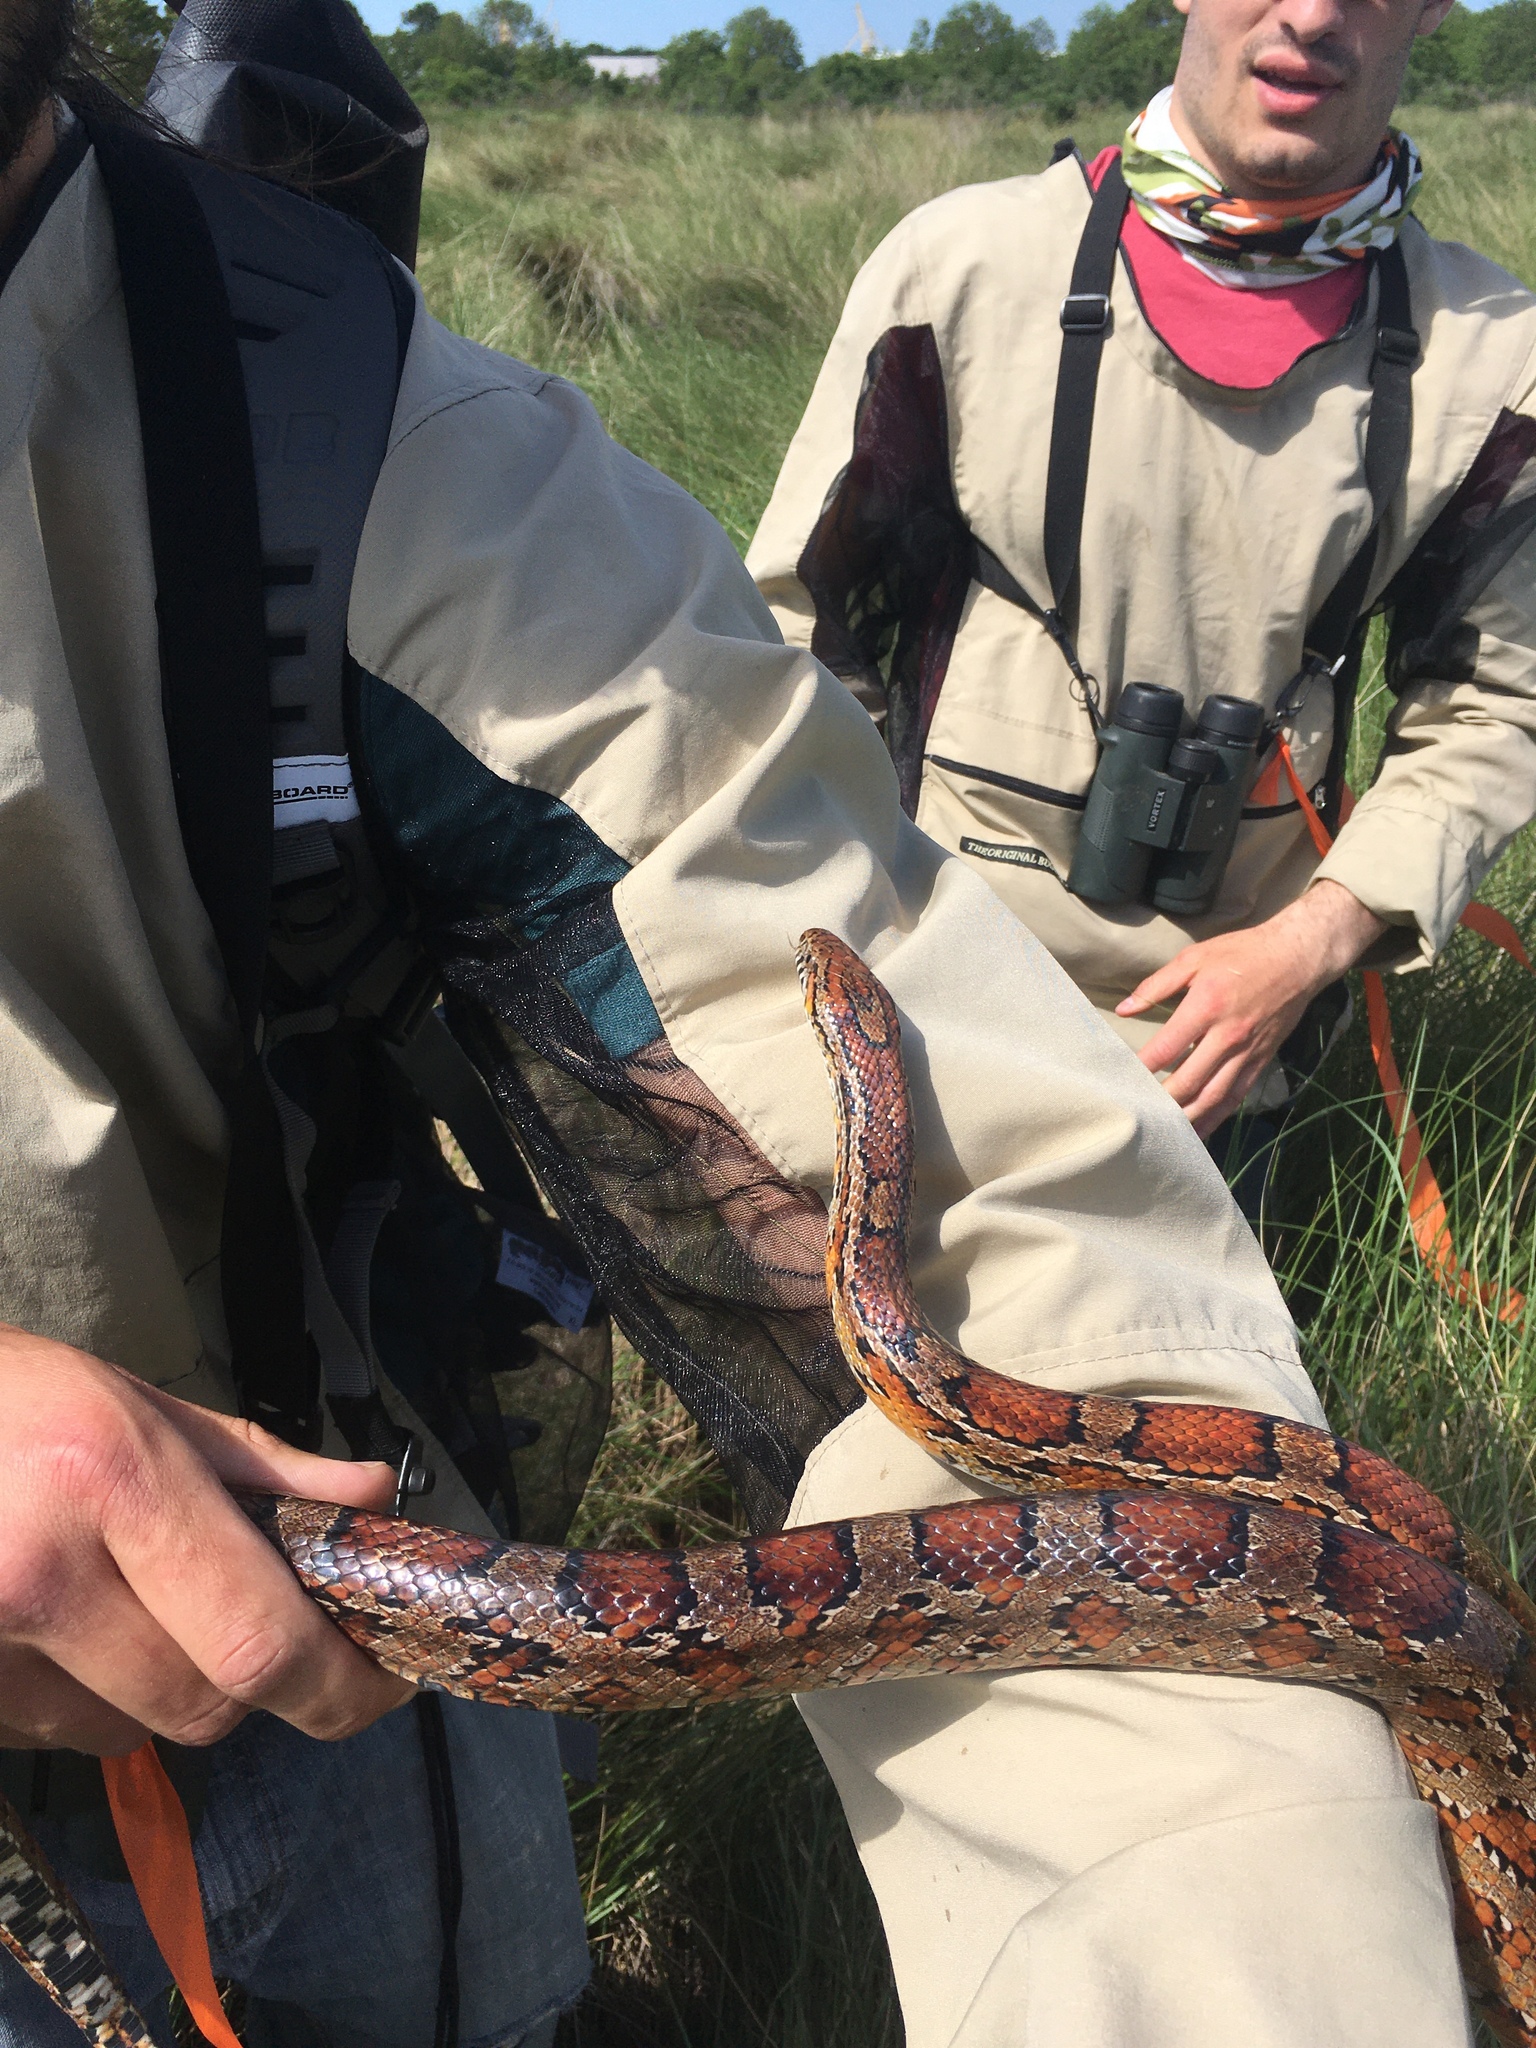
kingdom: Animalia
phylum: Chordata
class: Squamata
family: Colubridae
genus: Pantherophis
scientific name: Pantherophis guttatus
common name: Red cornsnake
